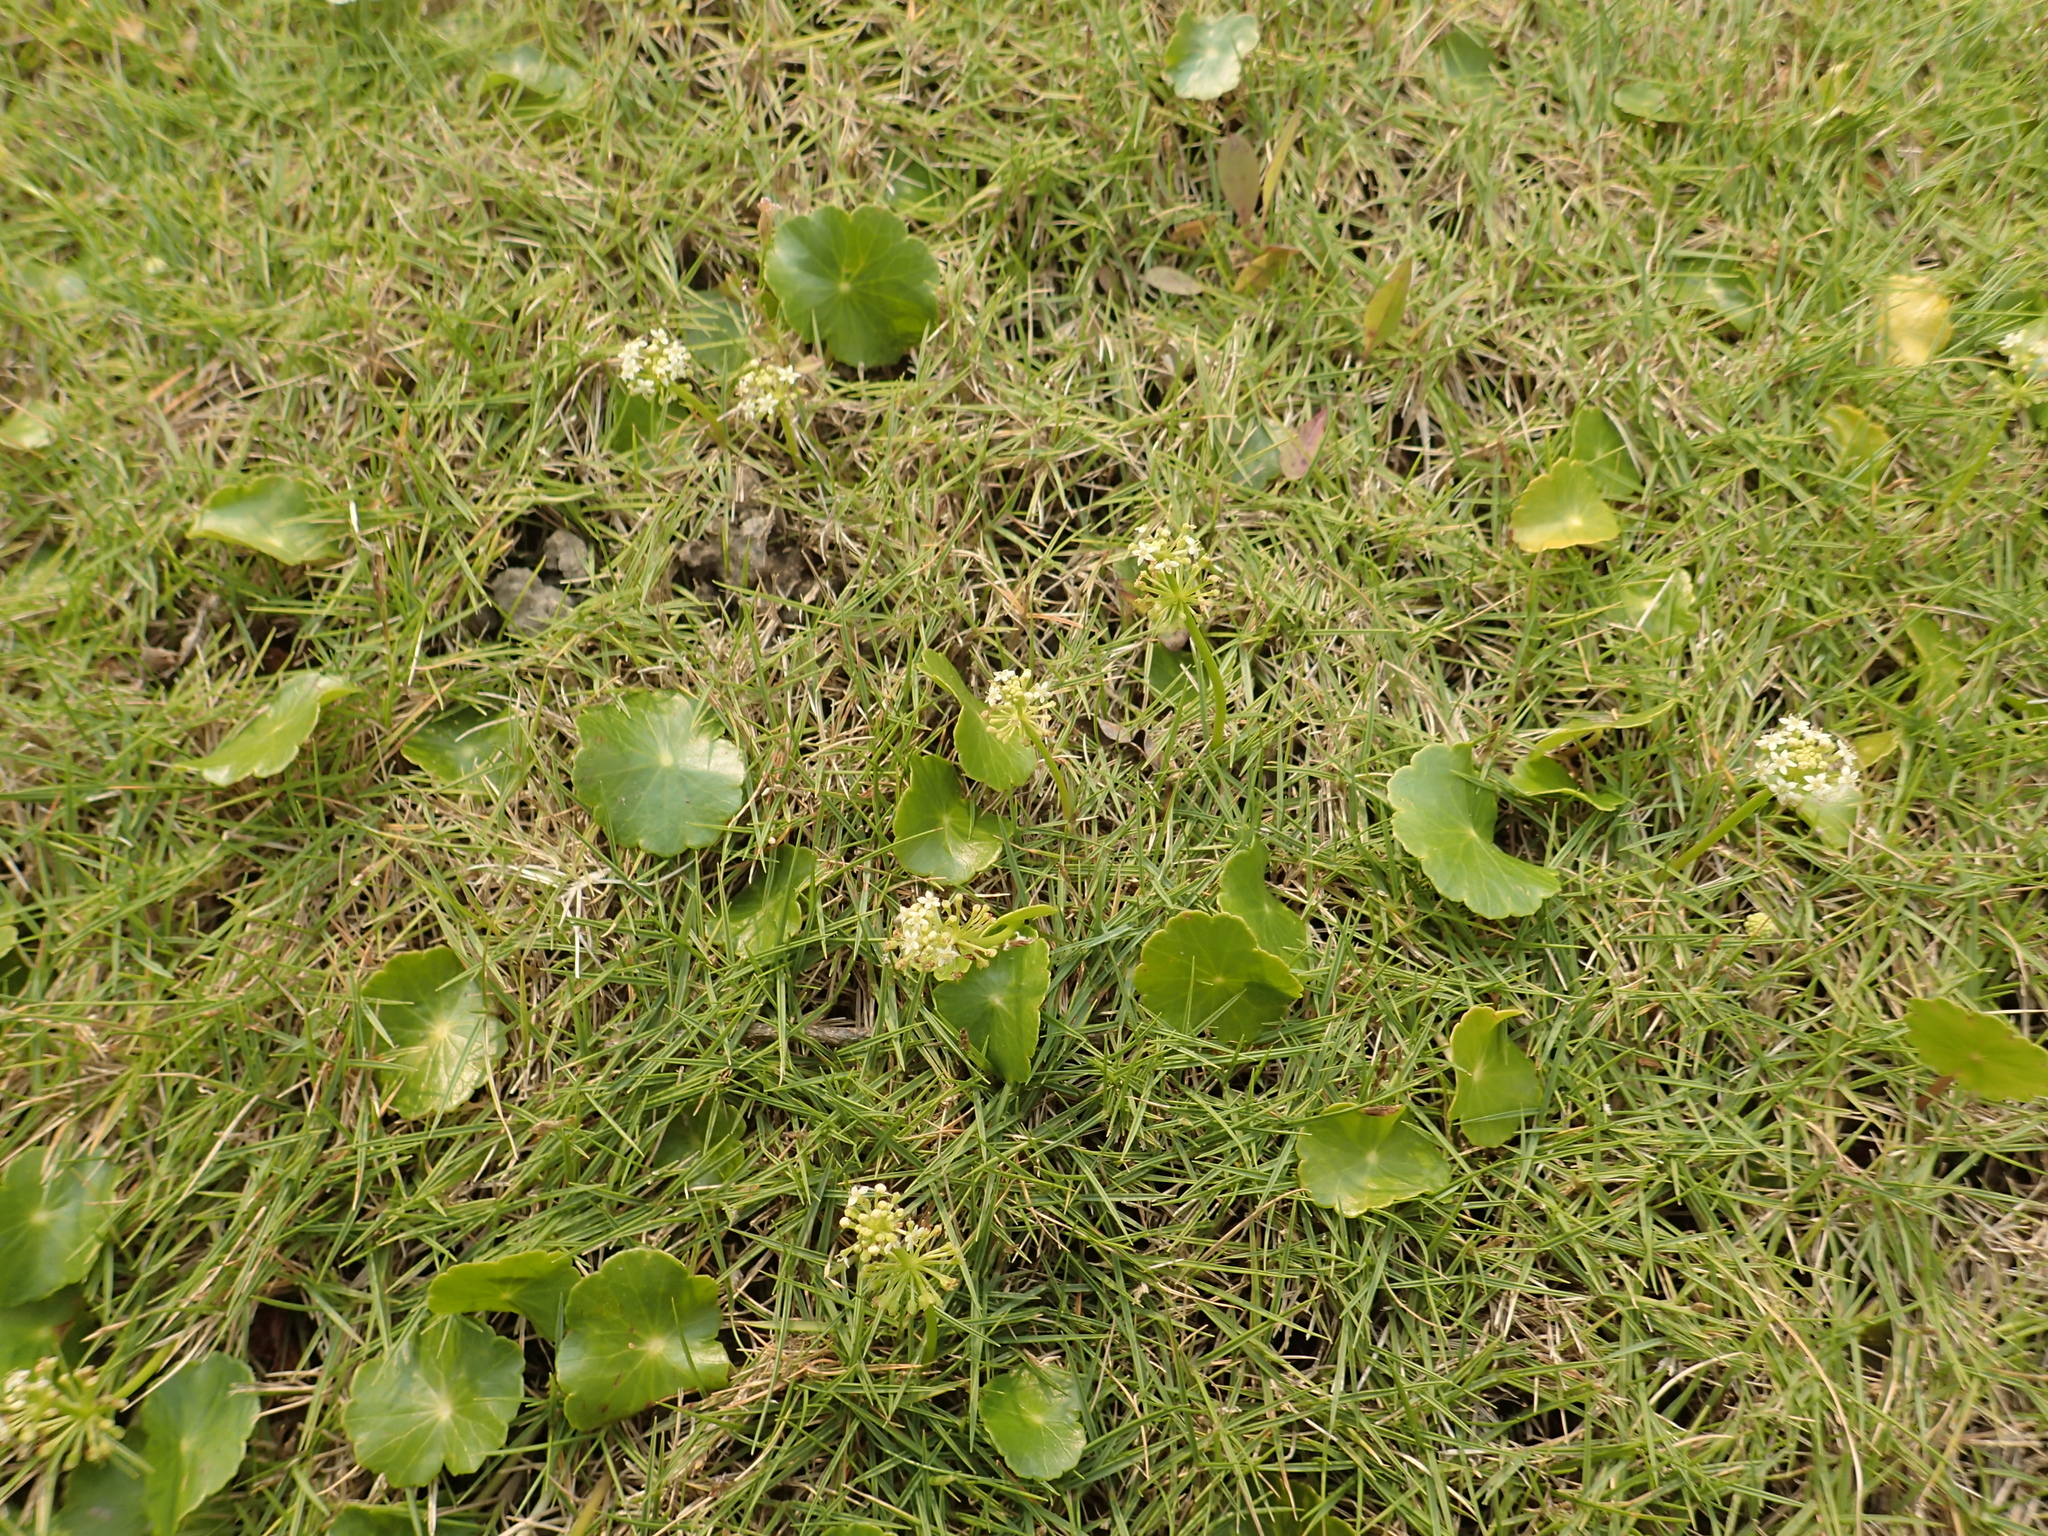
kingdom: Plantae
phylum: Tracheophyta
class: Magnoliopsida
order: Apiales
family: Araliaceae
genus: Hydrocotyle
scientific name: Hydrocotyle verticillata
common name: Whorled marshpennywort
